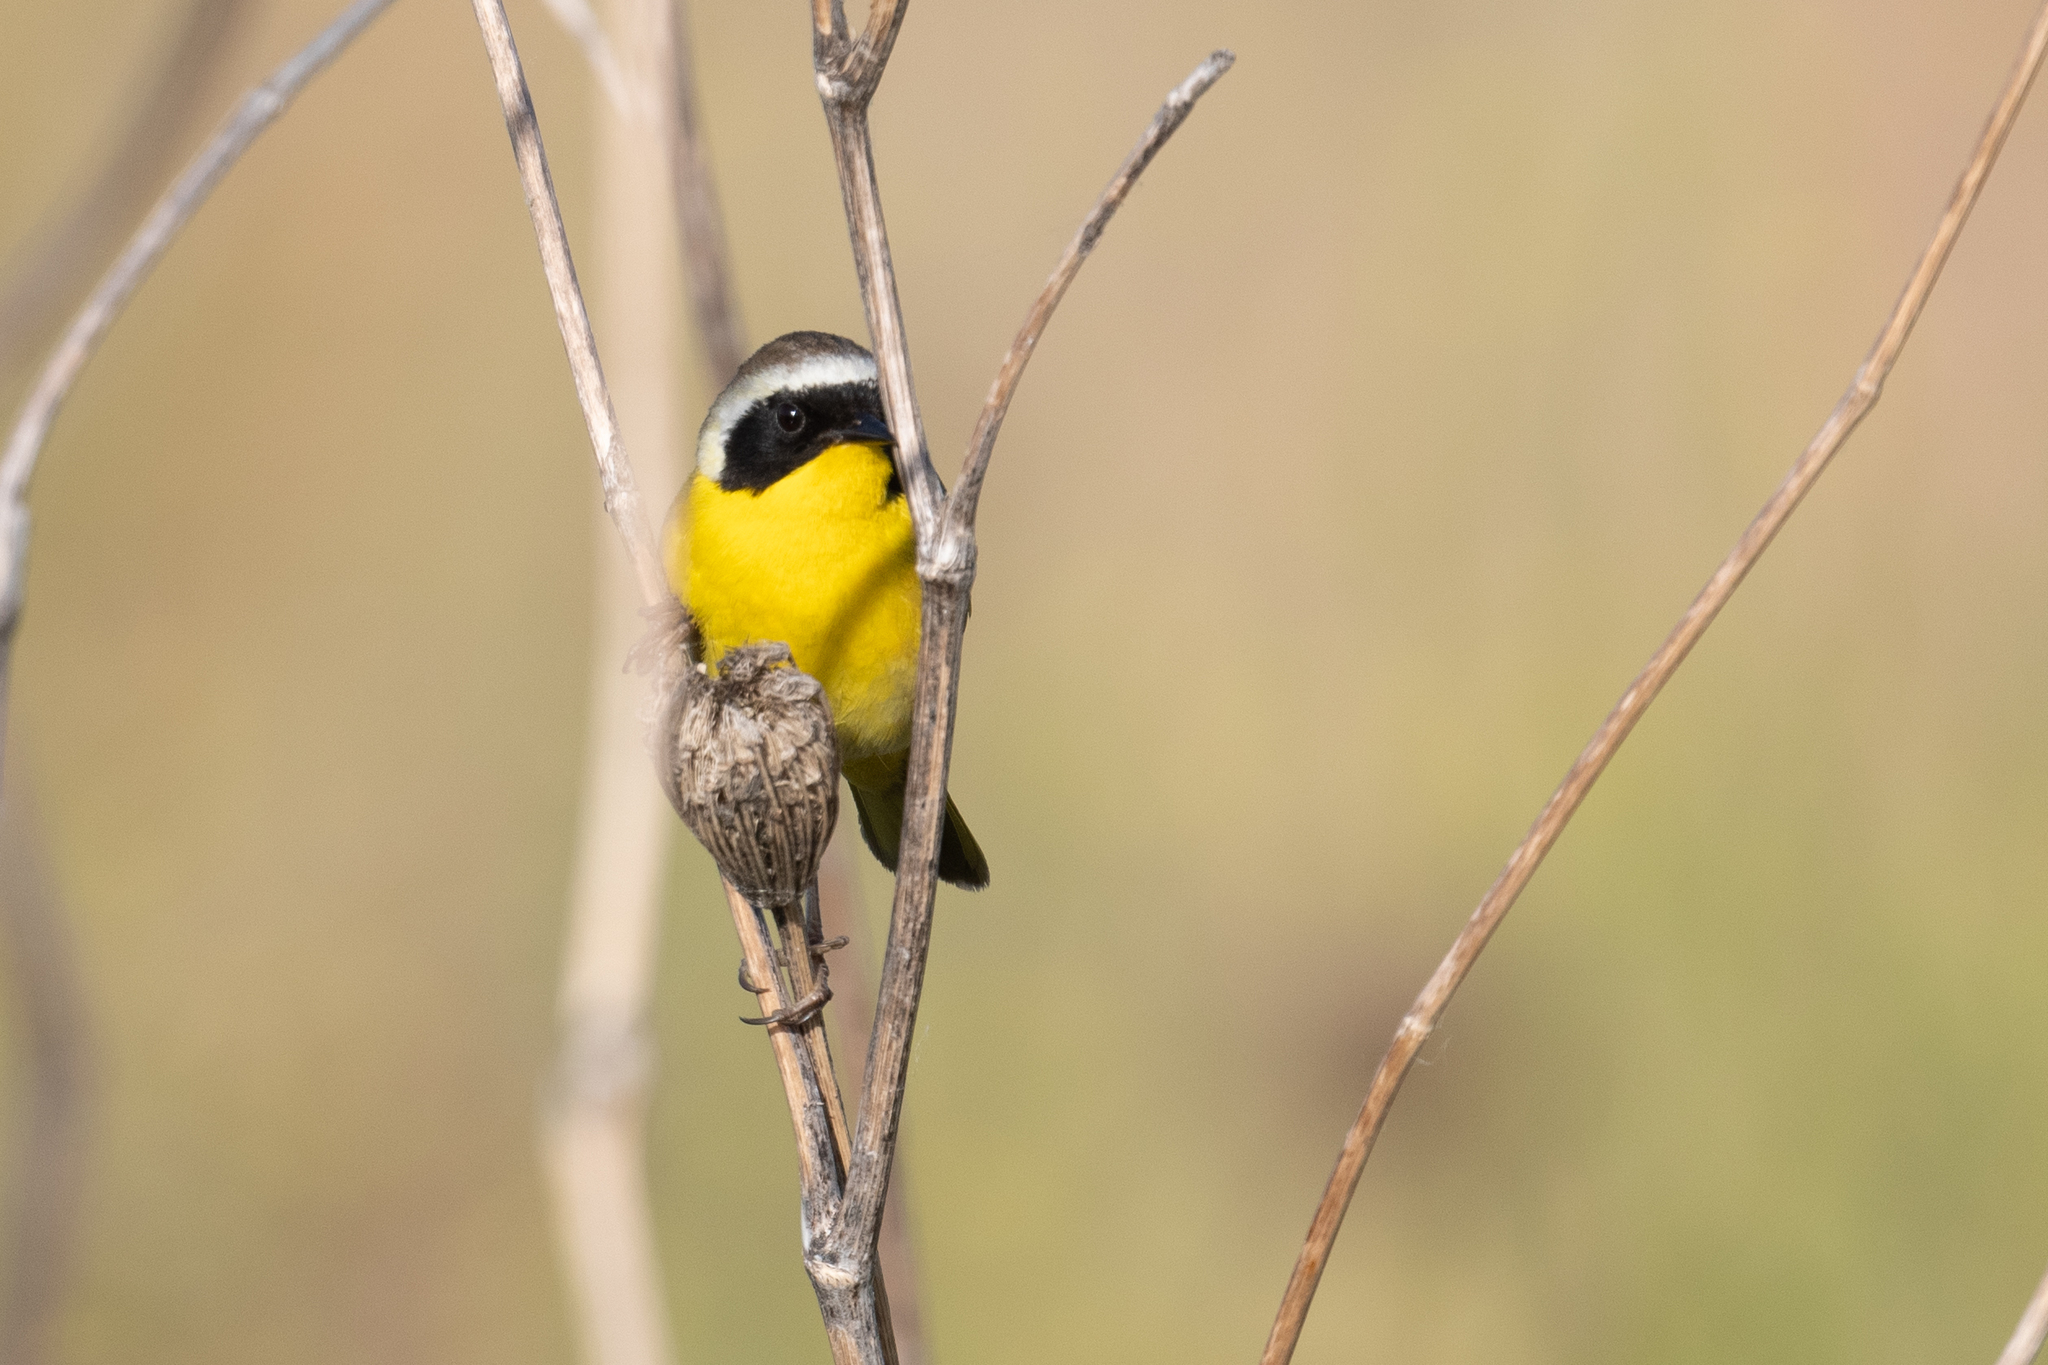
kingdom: Animalia
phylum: Chordata
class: Aves
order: Passeriformes
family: Parulidae
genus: Geothlypis
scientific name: Geothlypis trichas
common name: Common yellowthroat
